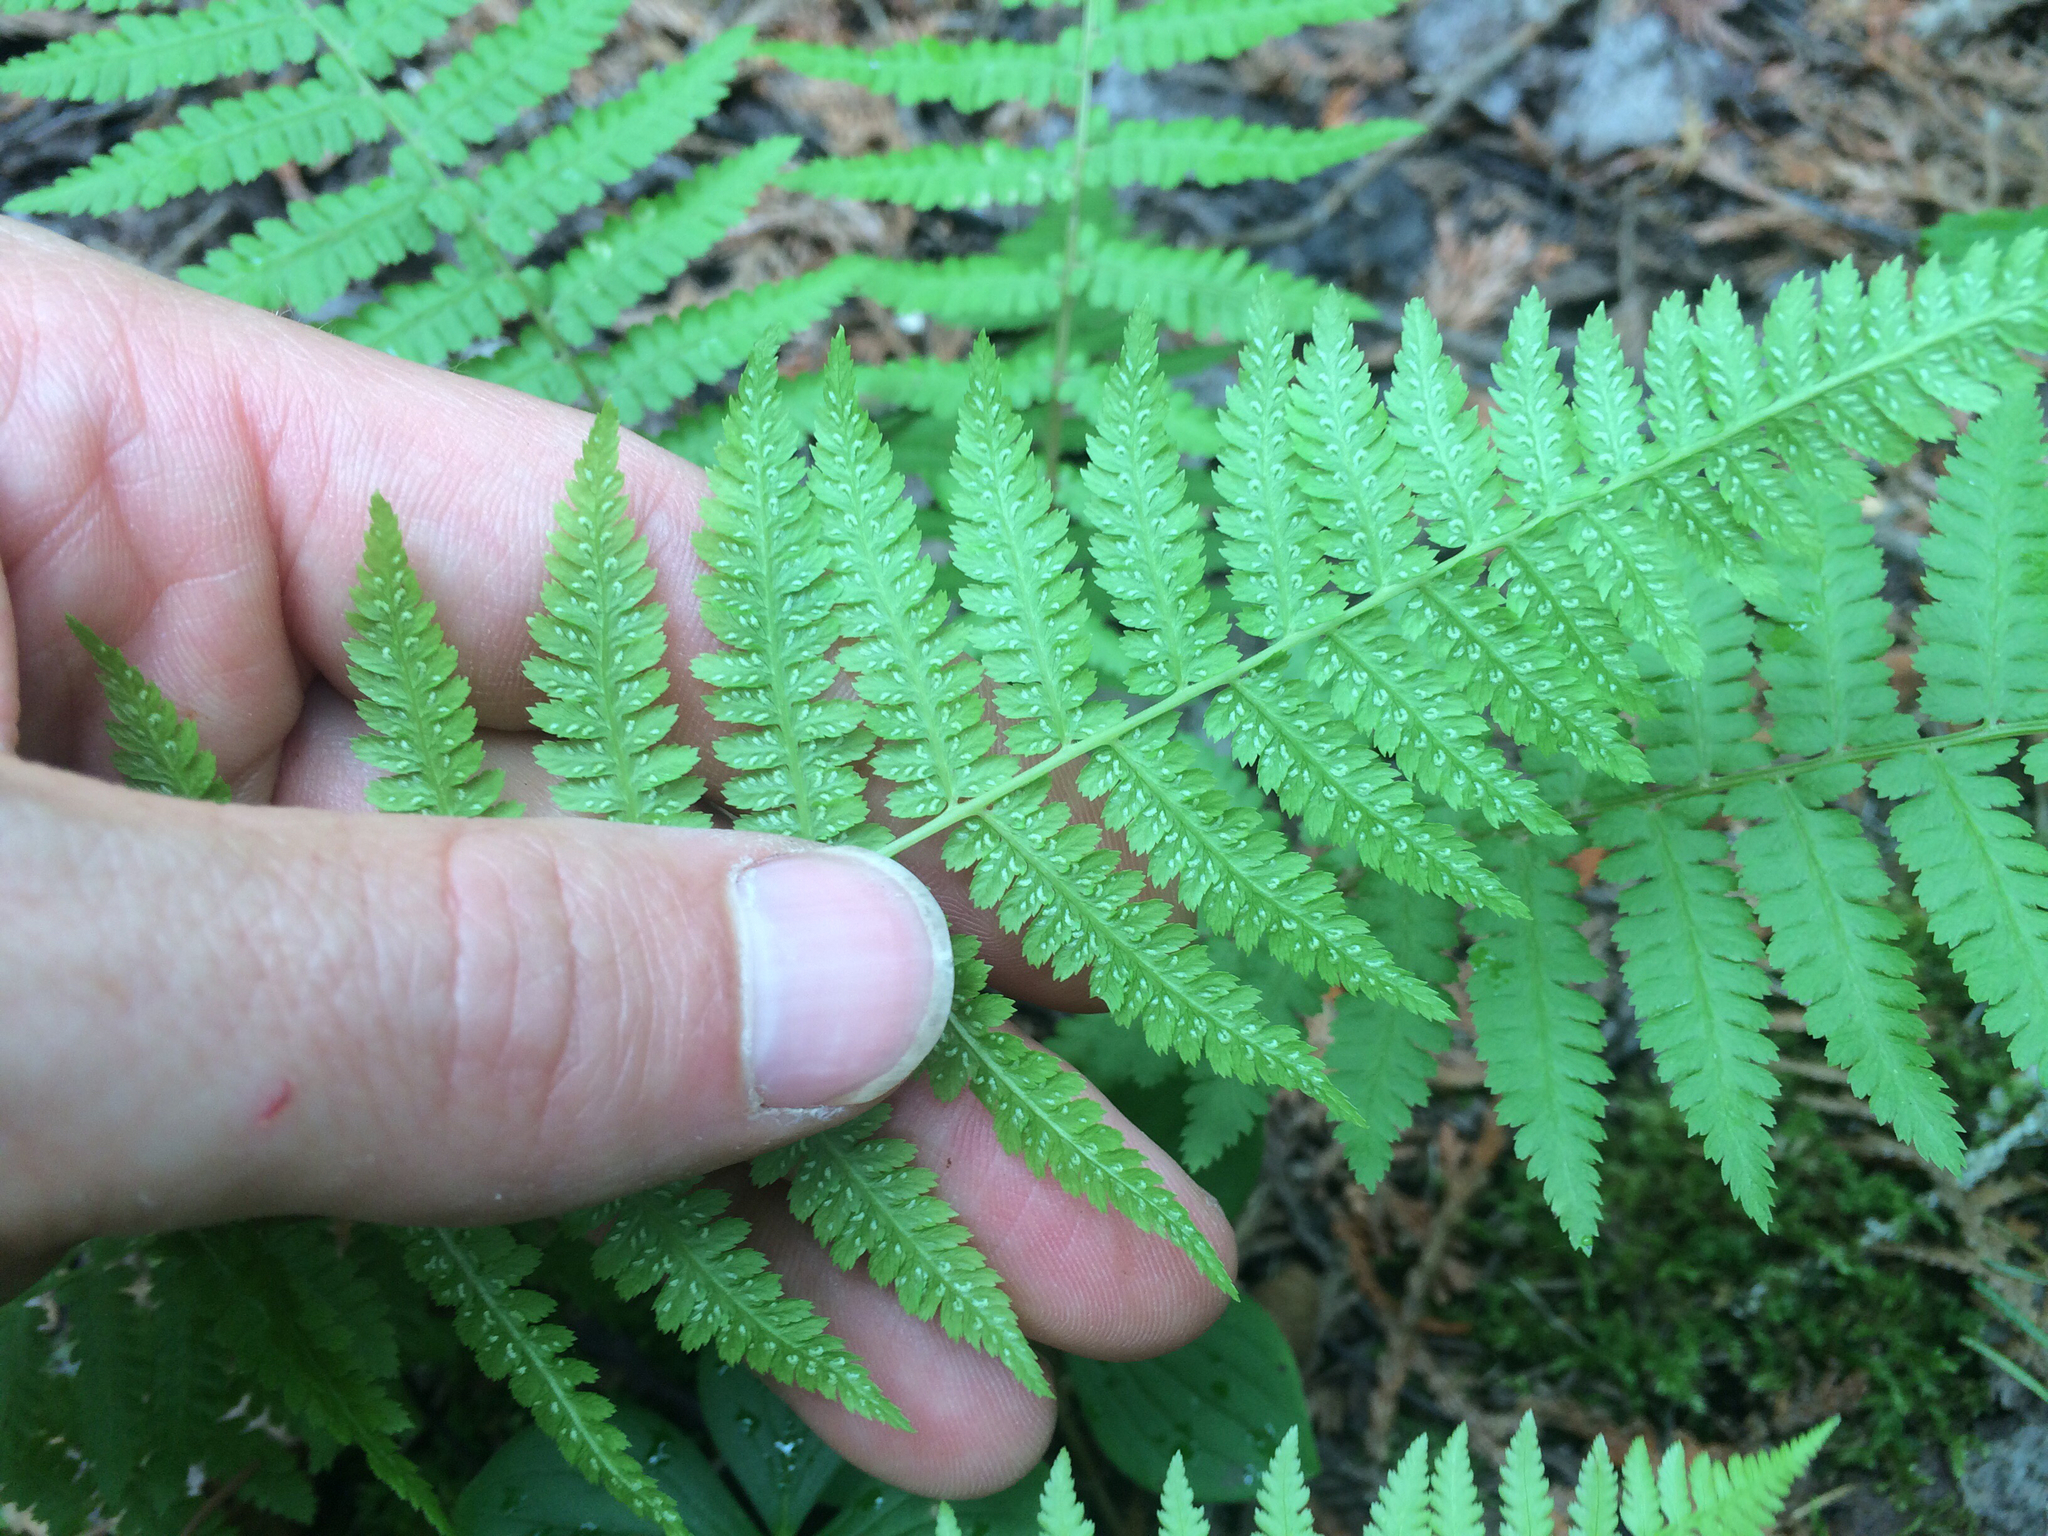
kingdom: Plantae
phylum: Tracheophyta
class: Polypodiopsida
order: Polypodiales
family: Athyriaceae
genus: Athyrium
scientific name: Athyrium angustum
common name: Northern lady fern
